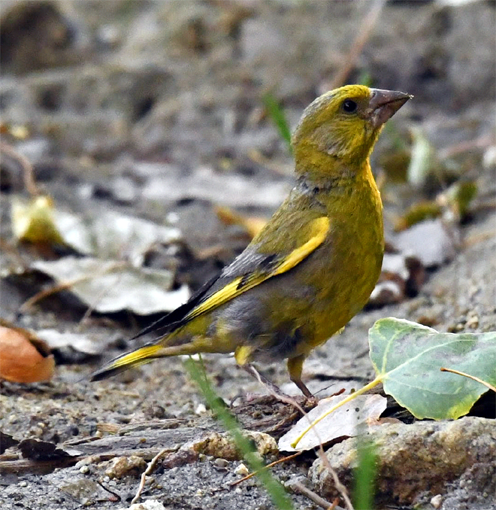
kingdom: Plantae
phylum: Tracheophyta
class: Liliopsida
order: Poales
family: Poaceae
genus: Chloris
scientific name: Chloris chloris
